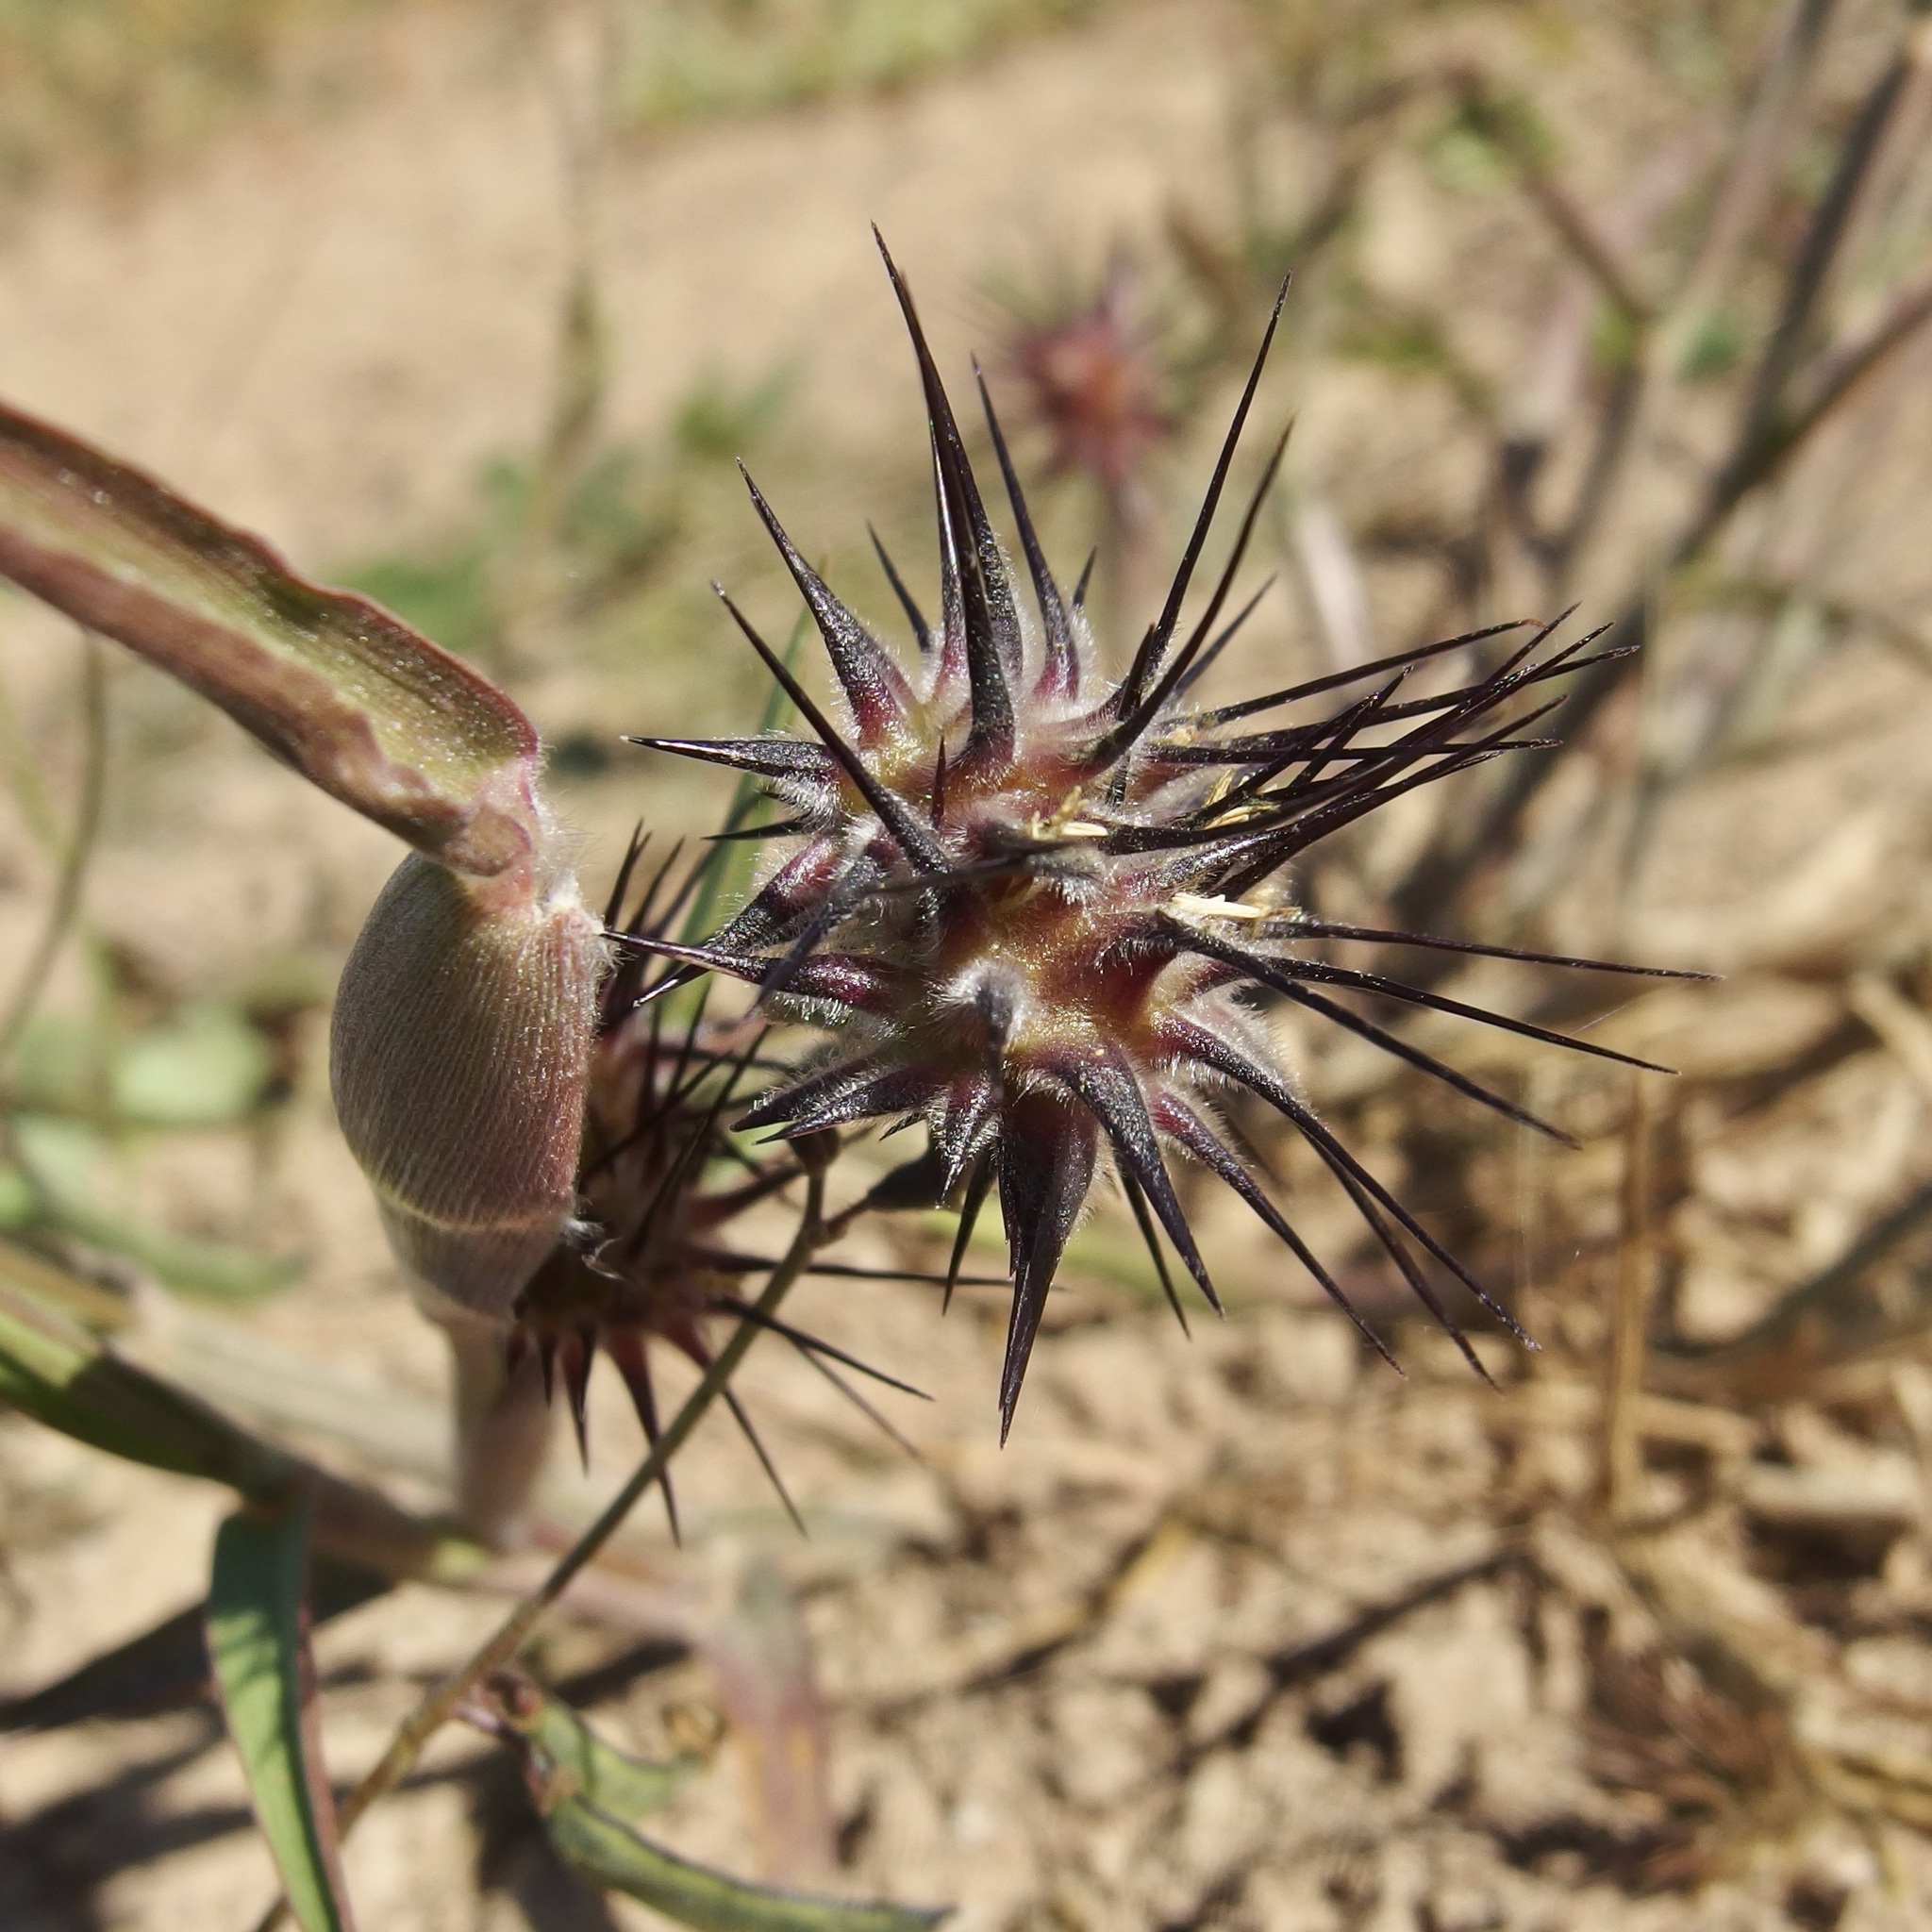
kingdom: Plantae
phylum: Tracheophyta
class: Liliopsida
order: Poales
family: Poaceae
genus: Cenchrus
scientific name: Cenchrus palmeri
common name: Giant sandbur
